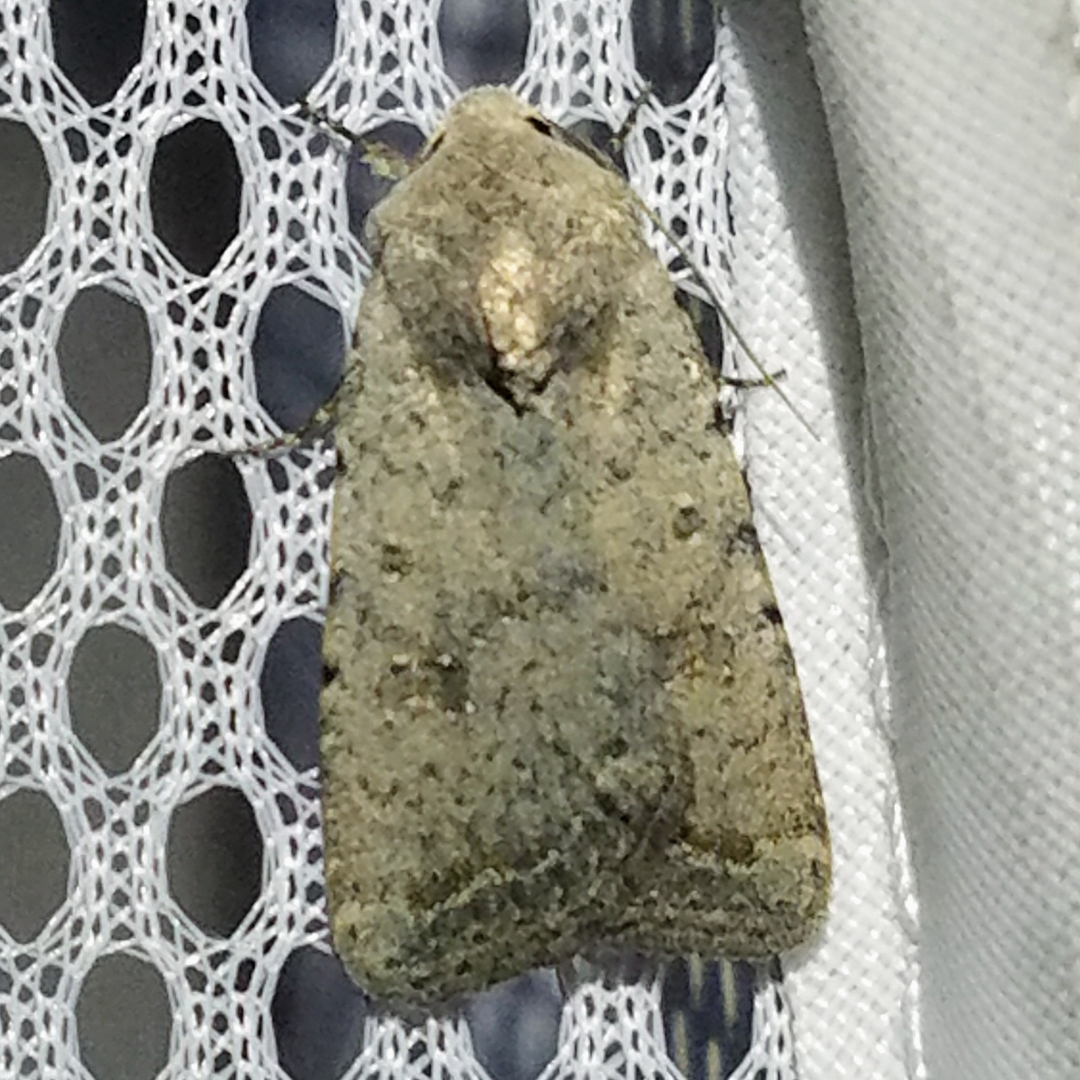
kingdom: Animalia
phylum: Arthropoda
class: Insecta
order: Lepidoptera
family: Noctuidae
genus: Caradrina
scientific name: Caradrina montana
